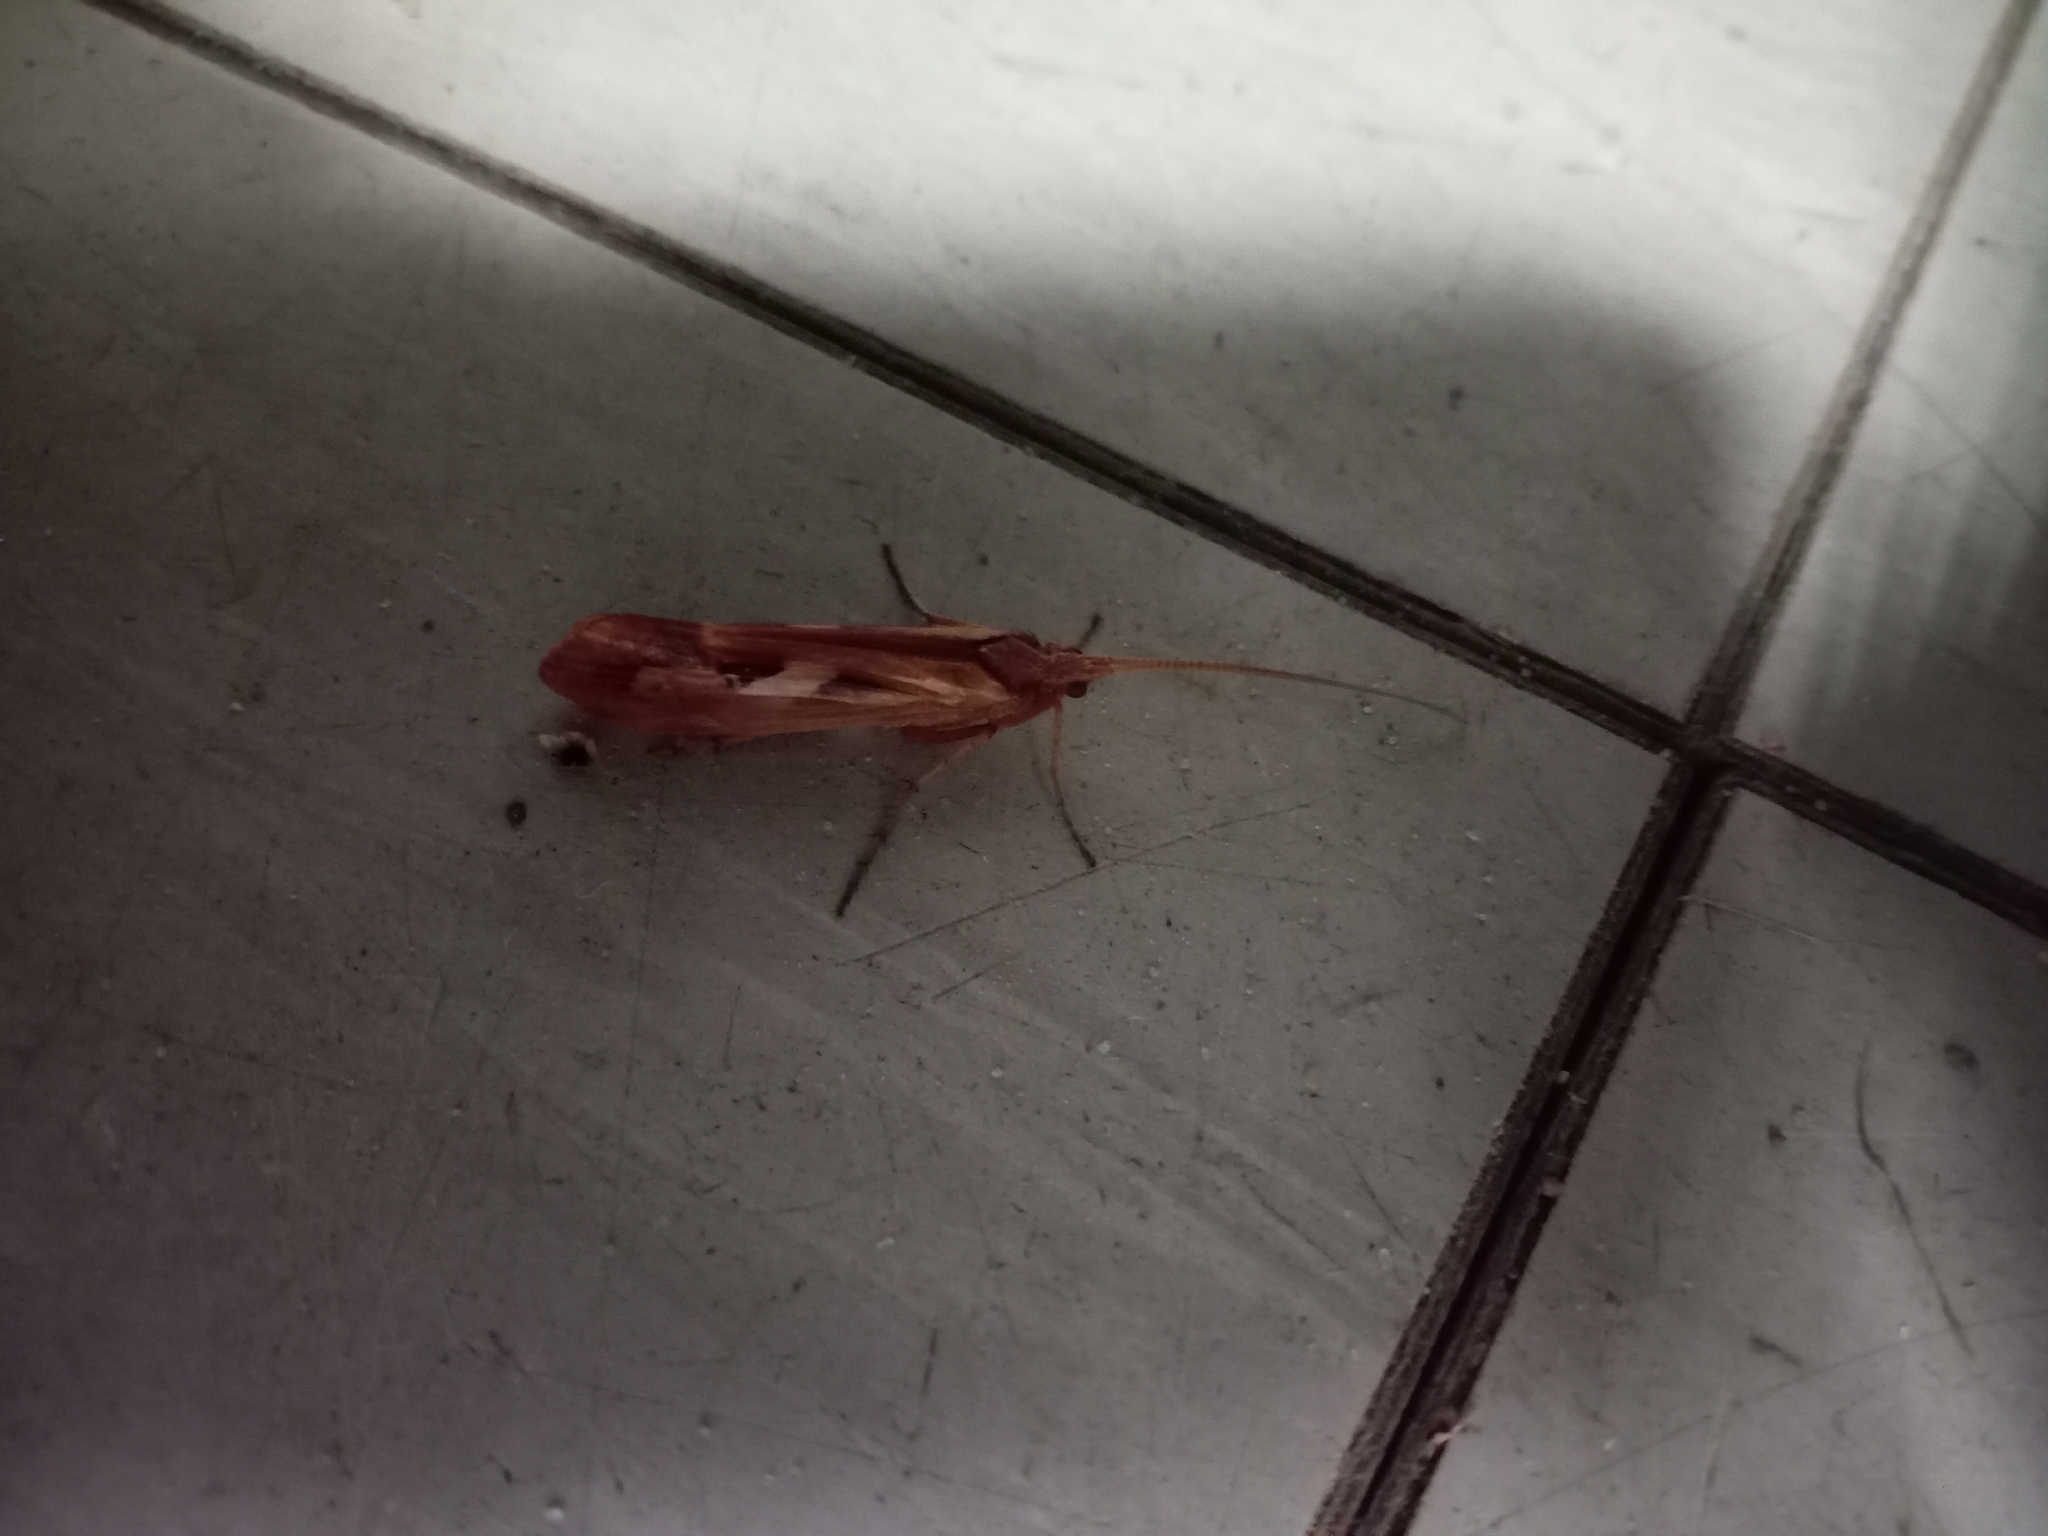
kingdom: Animalia
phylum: Arthropoda
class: Insecta
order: Trichoptera
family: Limnephilidae
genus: Limnephilus
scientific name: Limnephilus rhombicus
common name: Diamond northern caddisfly
